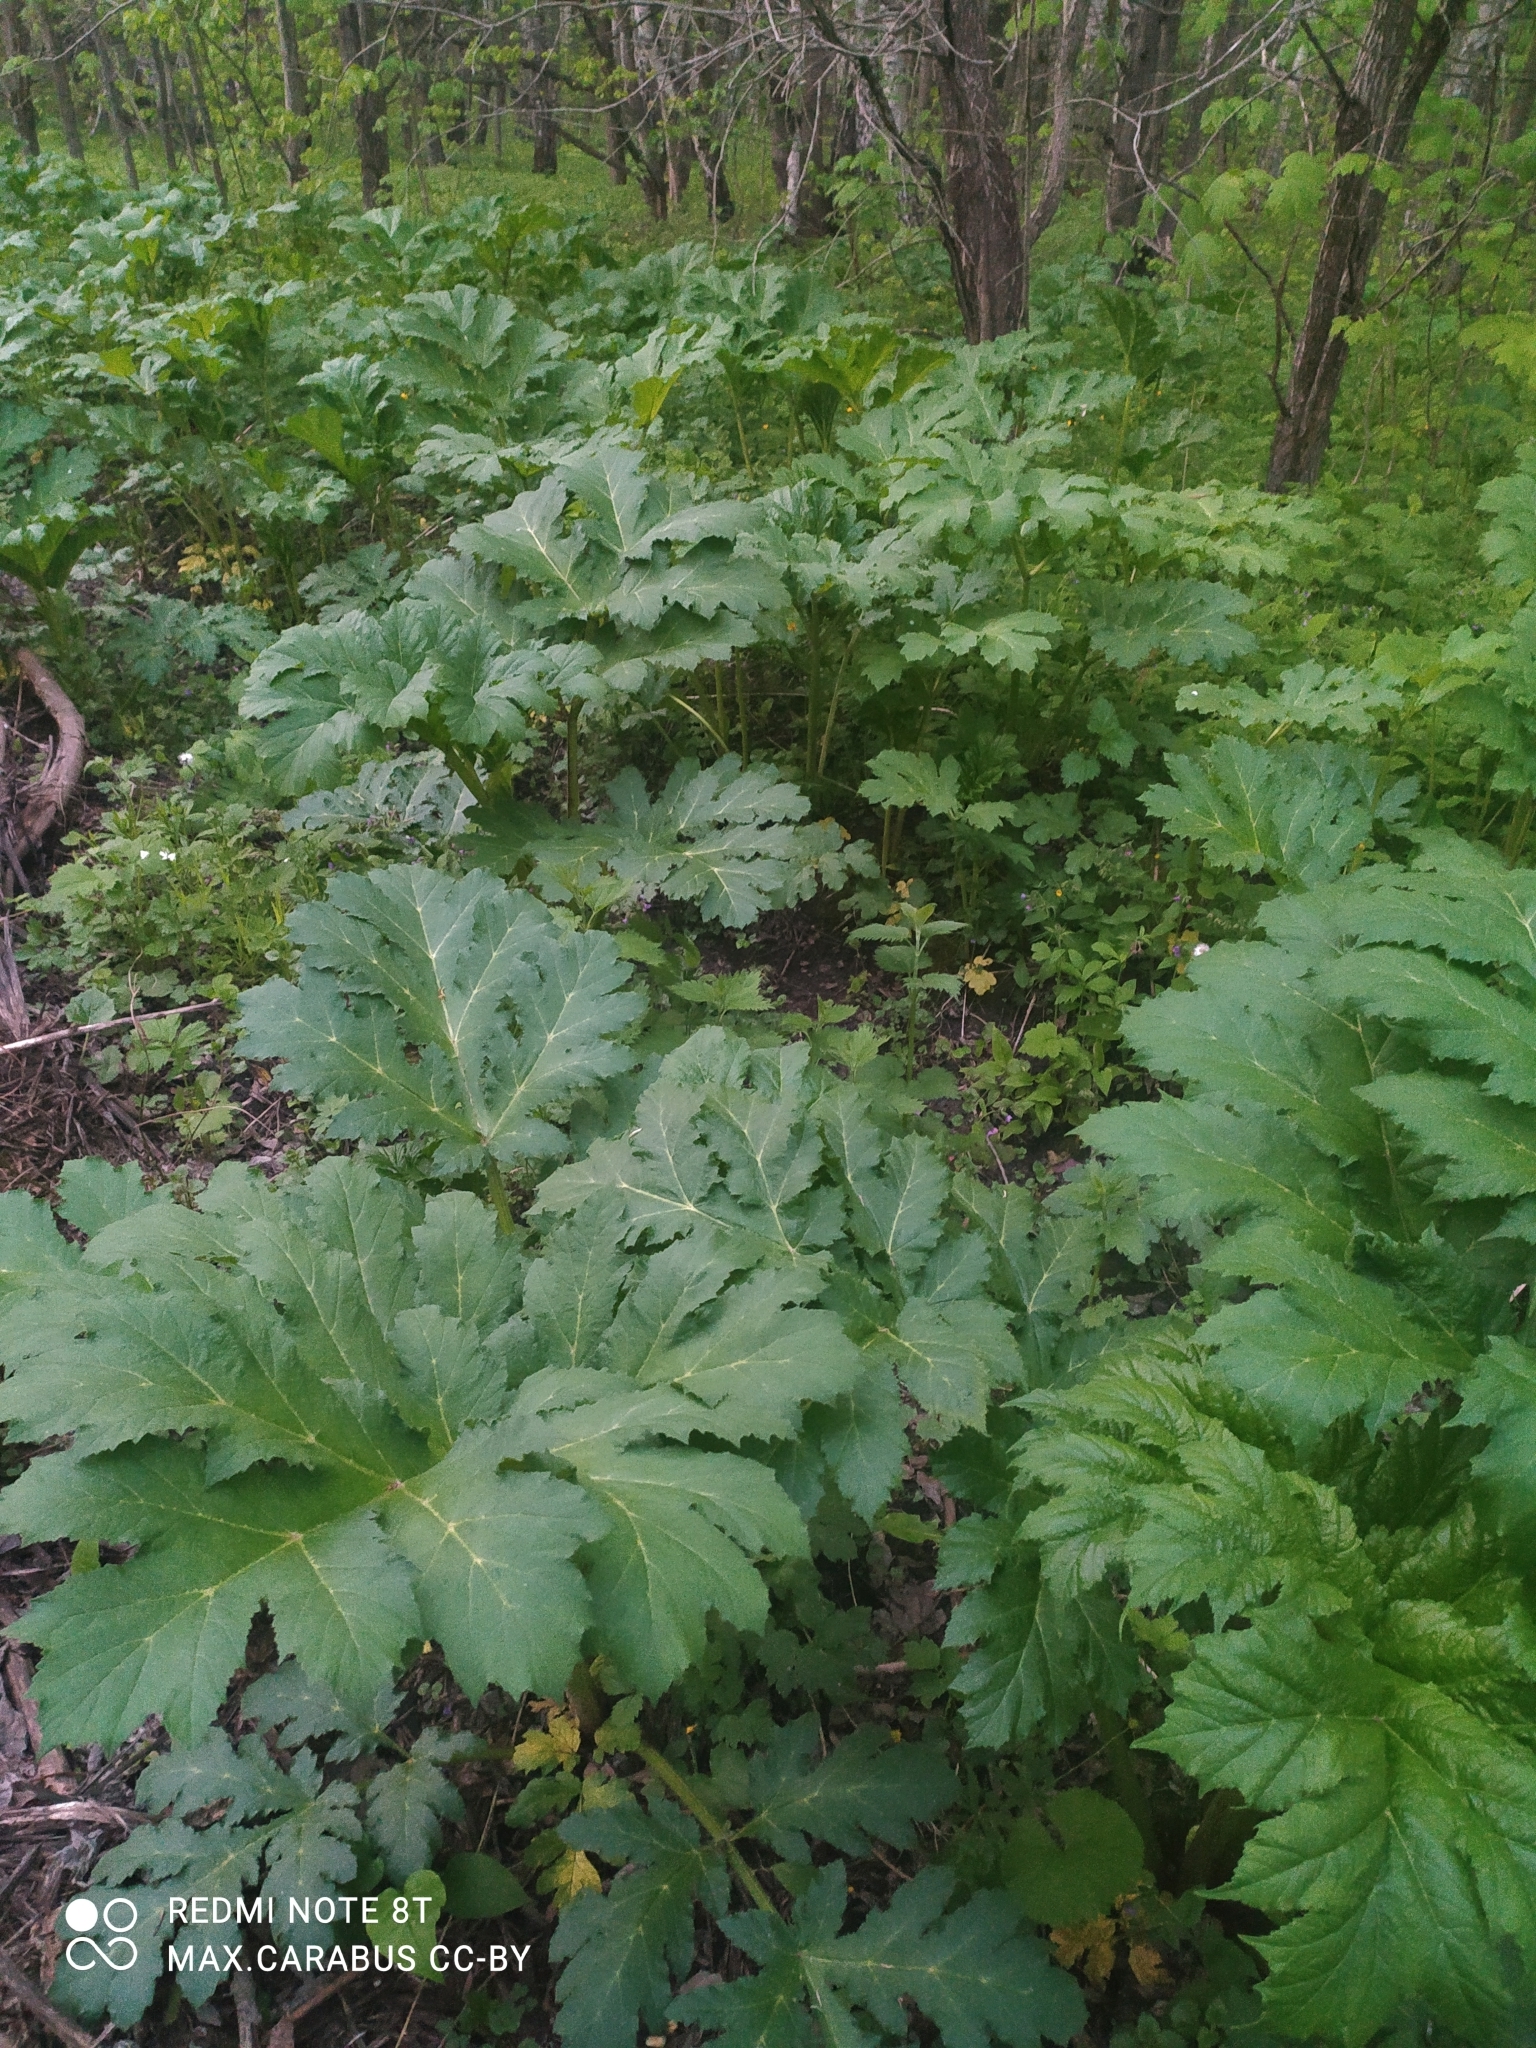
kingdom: Plantae
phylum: Tracheophyta
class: Magnoliopsida
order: Apiales
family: Apiaceae
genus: Heracleum
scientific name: Heracleum sosnowskyi
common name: Sosnowsky's hogweed
